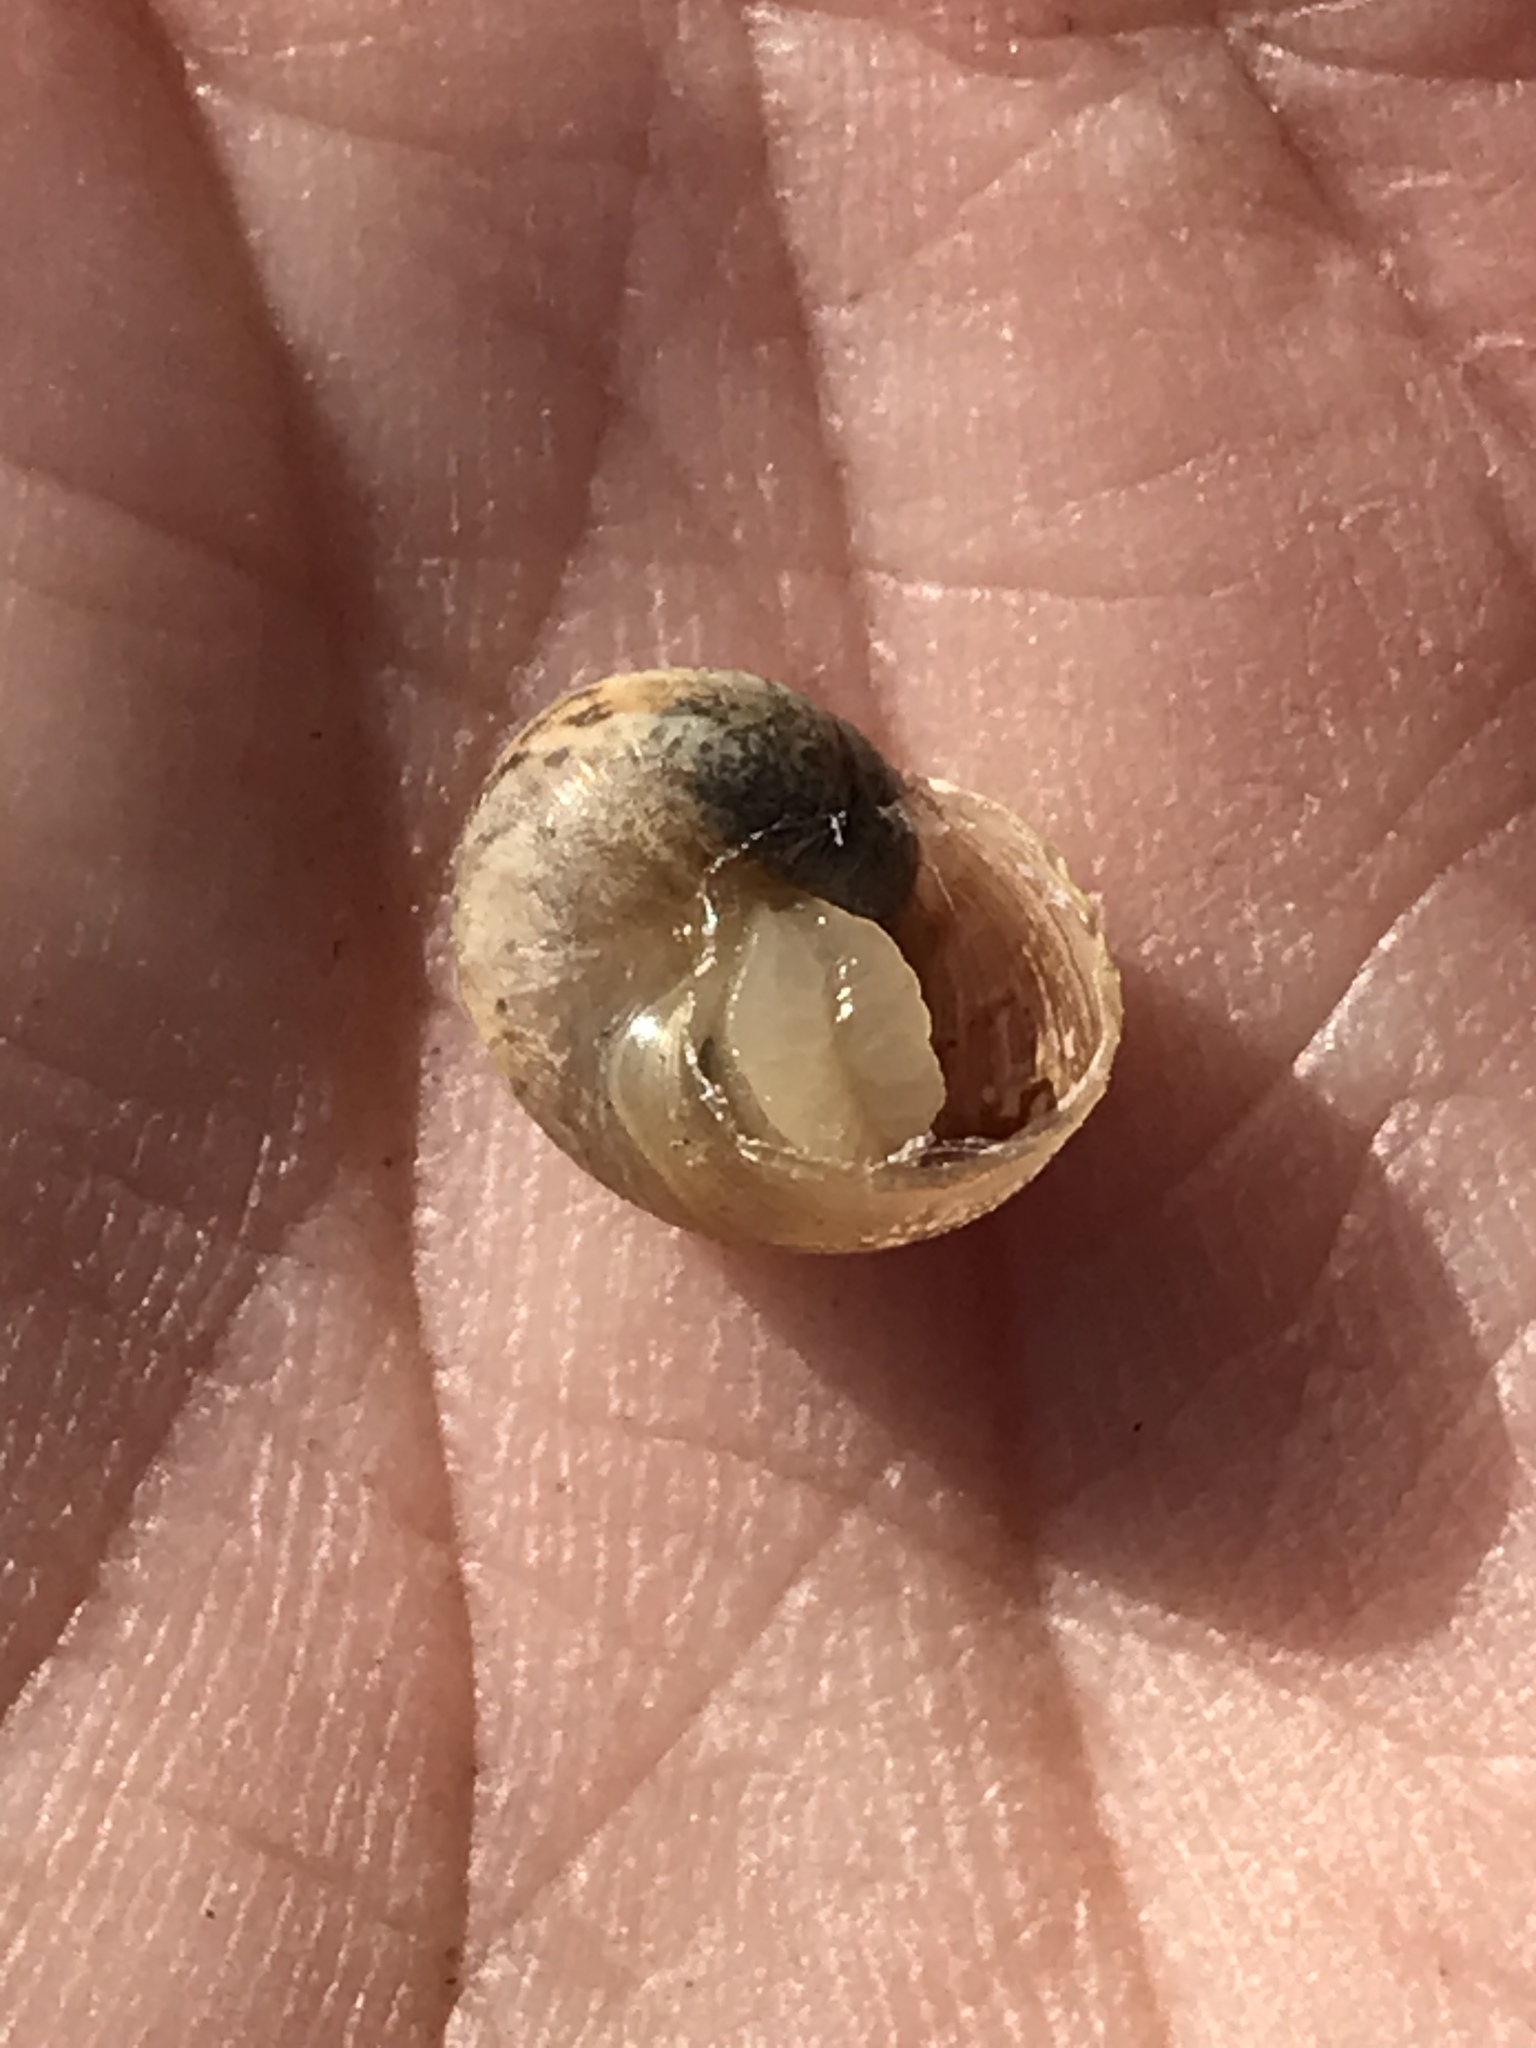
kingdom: Animalia
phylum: Mollusca
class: Gastropoda
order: Stylommatophora
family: Helicidae
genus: Cornu
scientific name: Cornu aspersum
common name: Brown garden snail
